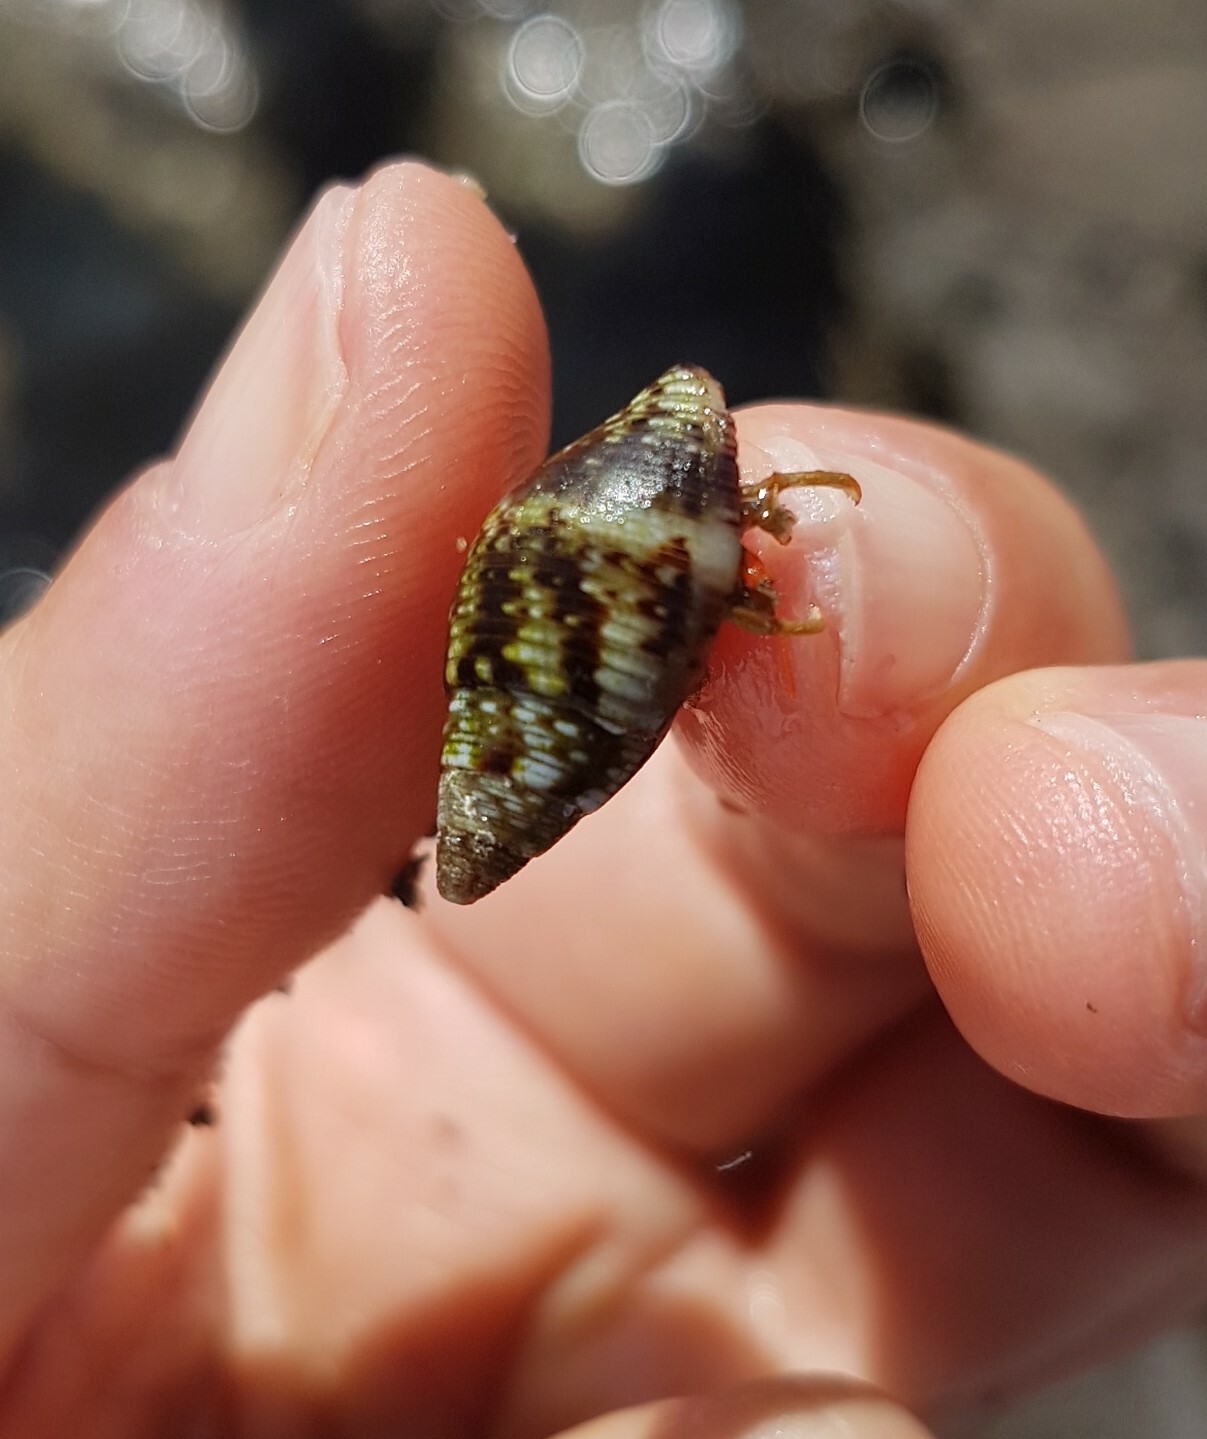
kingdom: Animalia
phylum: Mollusca
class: Gastropoda
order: Neogastropoda
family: Pisaniidae
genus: Pisania
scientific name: Pisania striata
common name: Spotted pisania
